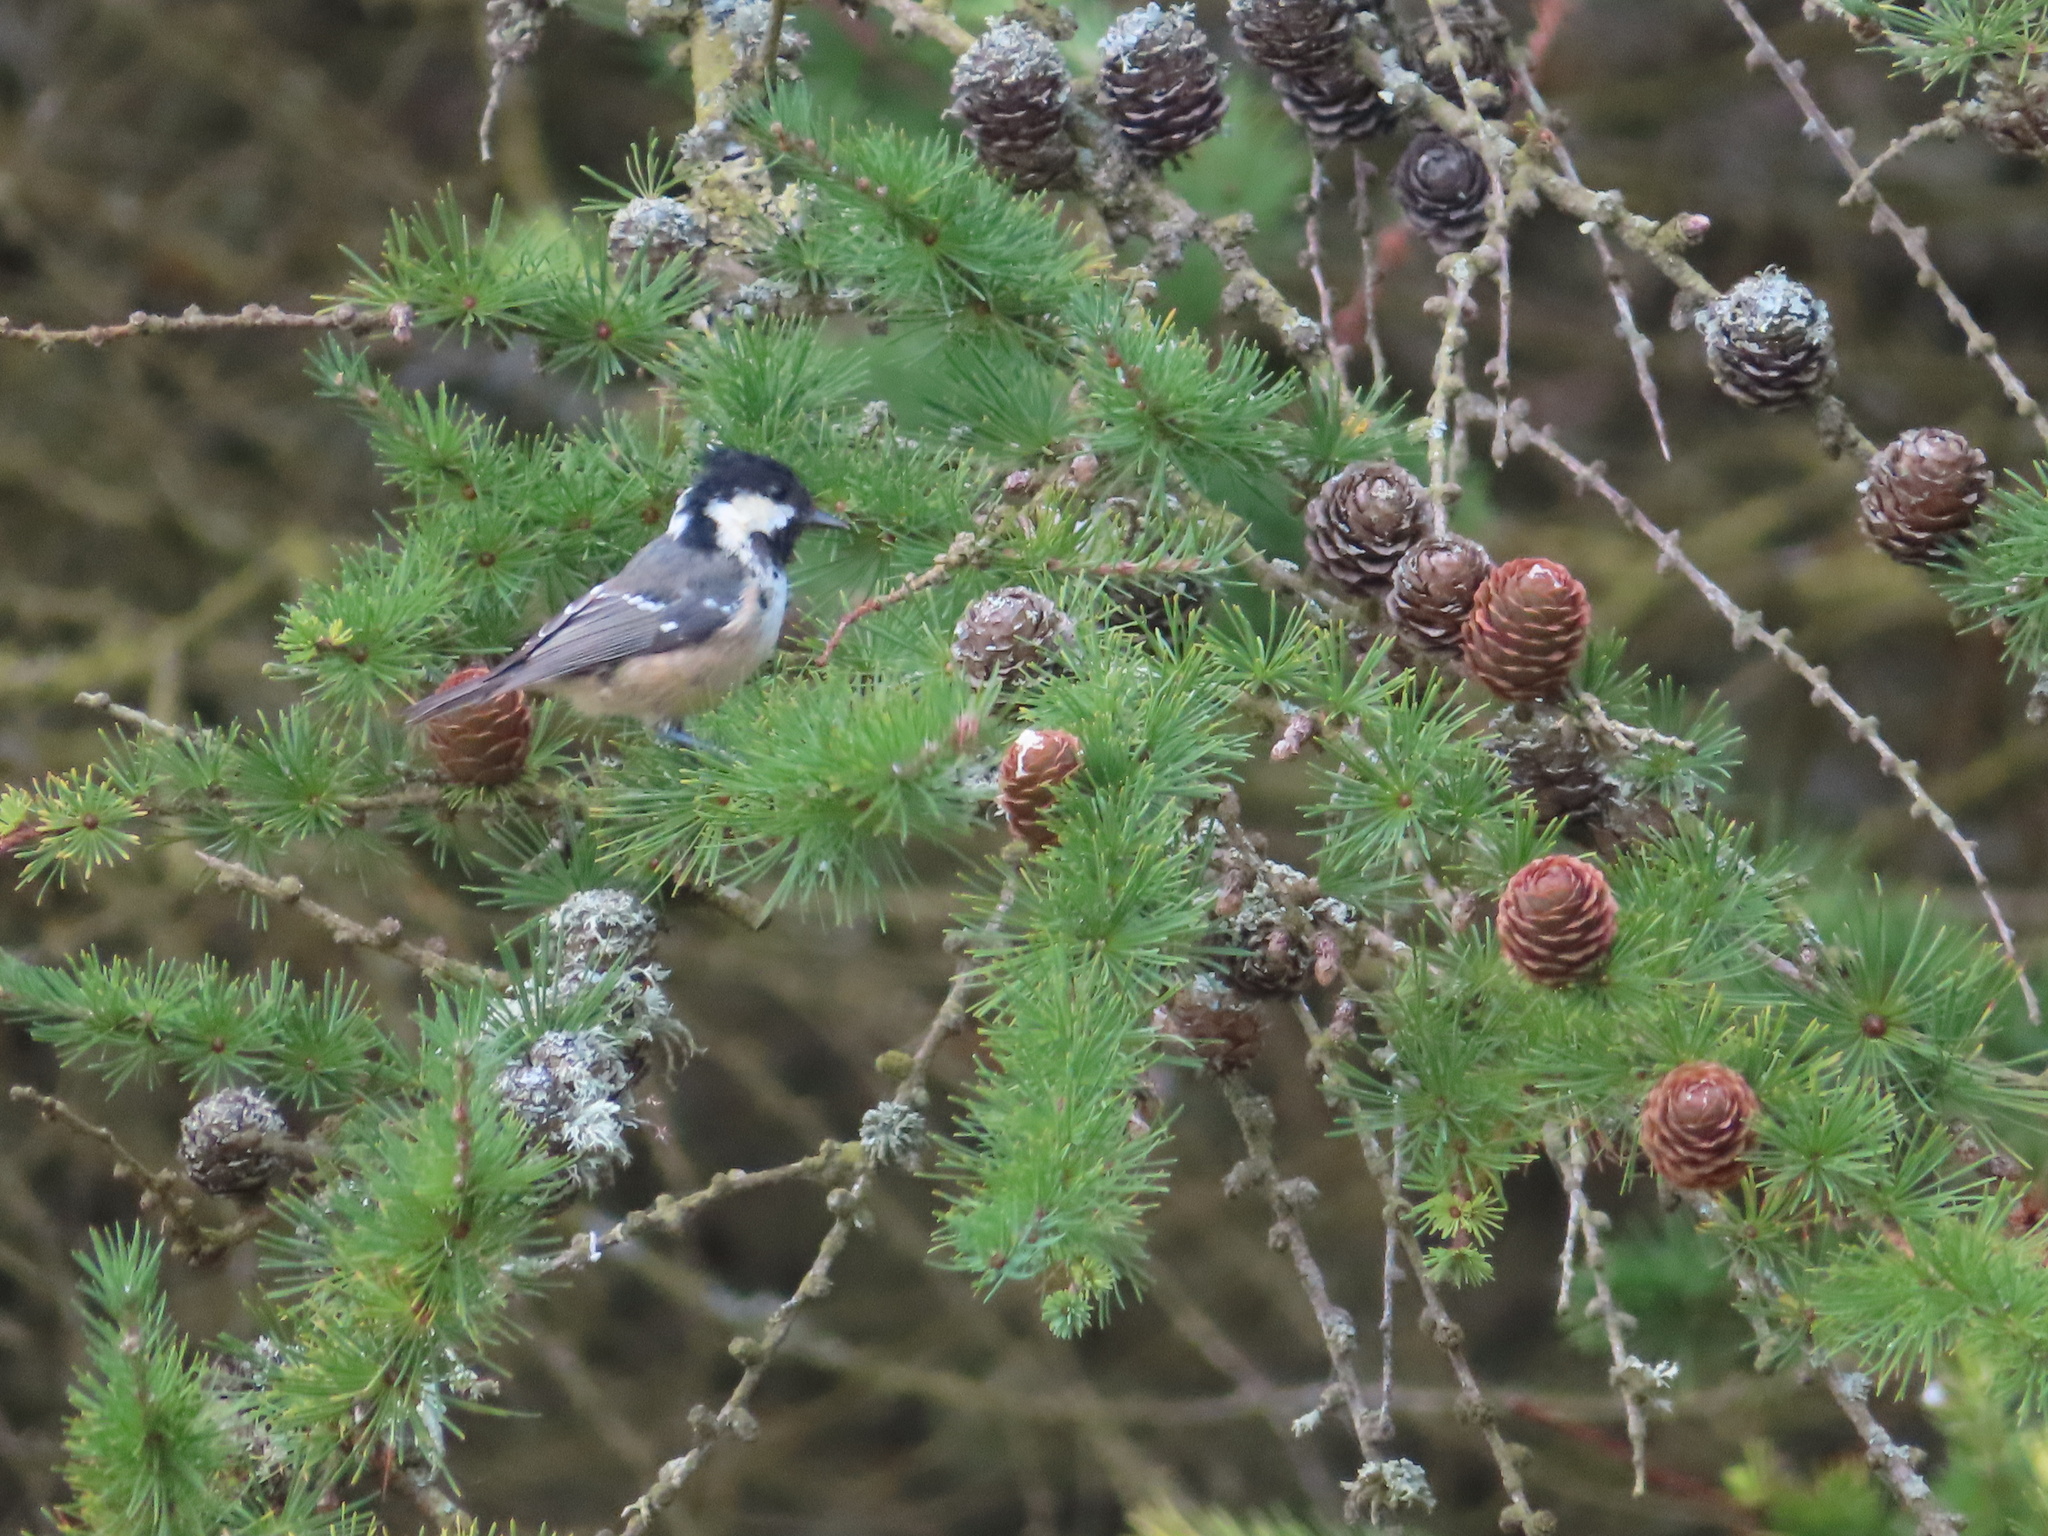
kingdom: Animalia
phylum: Chordata
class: Aves
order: Passeriformes
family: Paridae
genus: Periparus
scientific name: Periparus ater
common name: Coal tit
